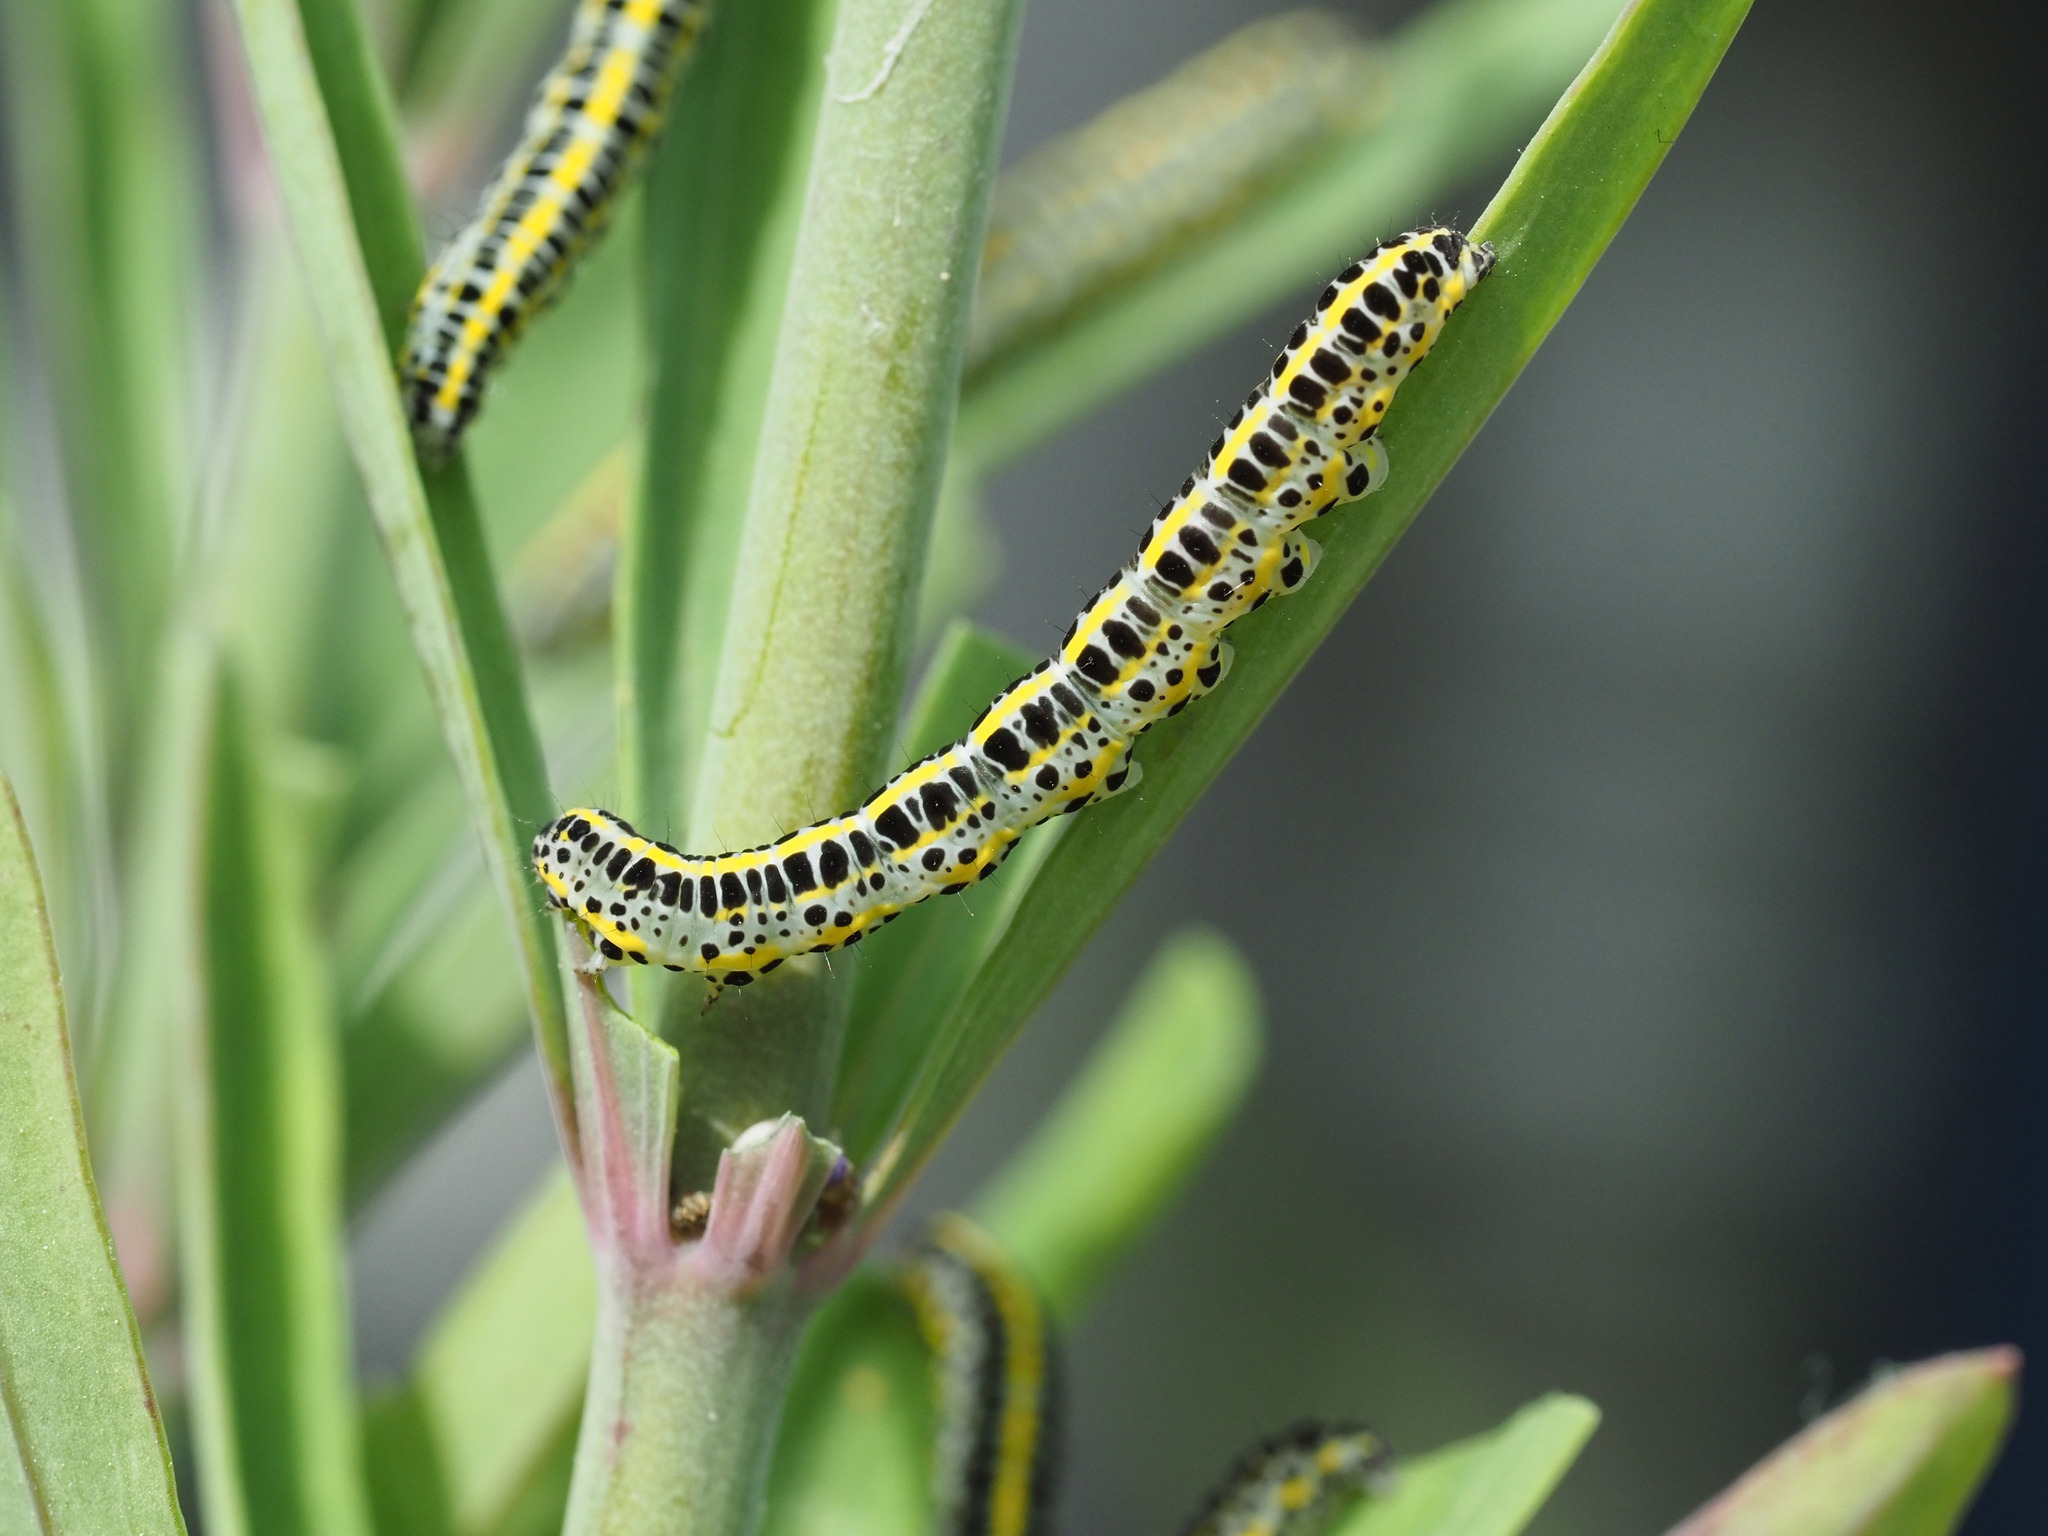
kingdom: Animalia
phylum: Arthropoda
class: Insecta
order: Lepidoptera
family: Noctuidae
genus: Calophasia
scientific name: Calophasia lunula
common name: Toadflax brocade
